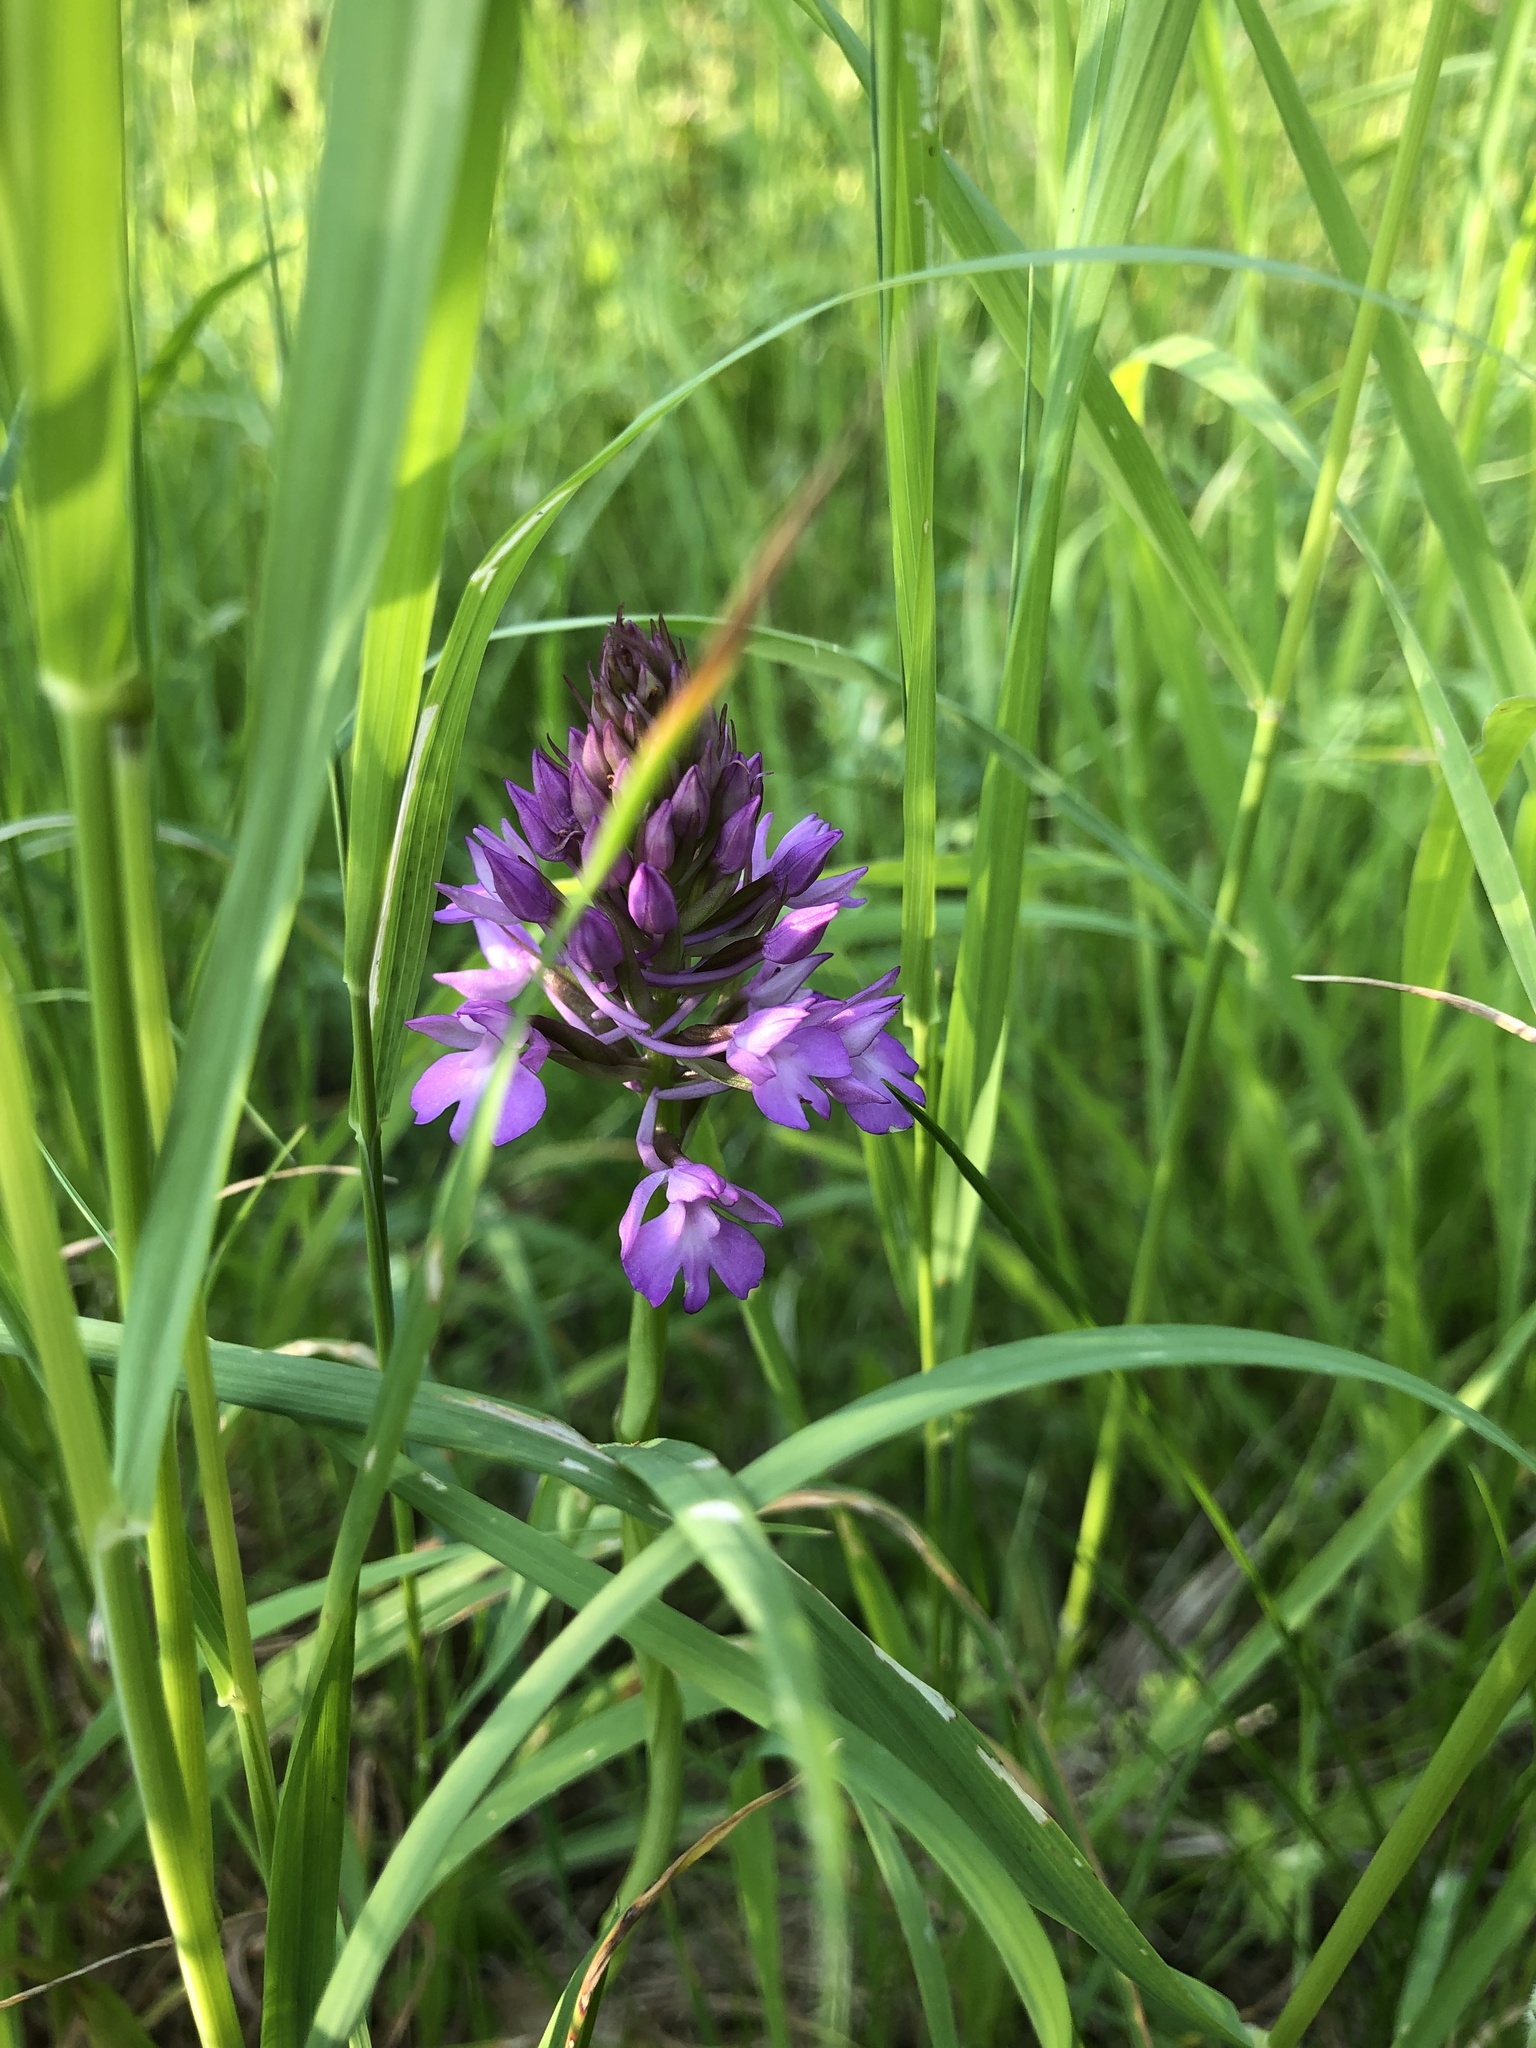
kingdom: Plantae
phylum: Tracheophyta
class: Liliopsida
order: Asparagales
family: Orchidaceae
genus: Anacamptis
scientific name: Anacamptis pyramidalis
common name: Pyramidal orchid
